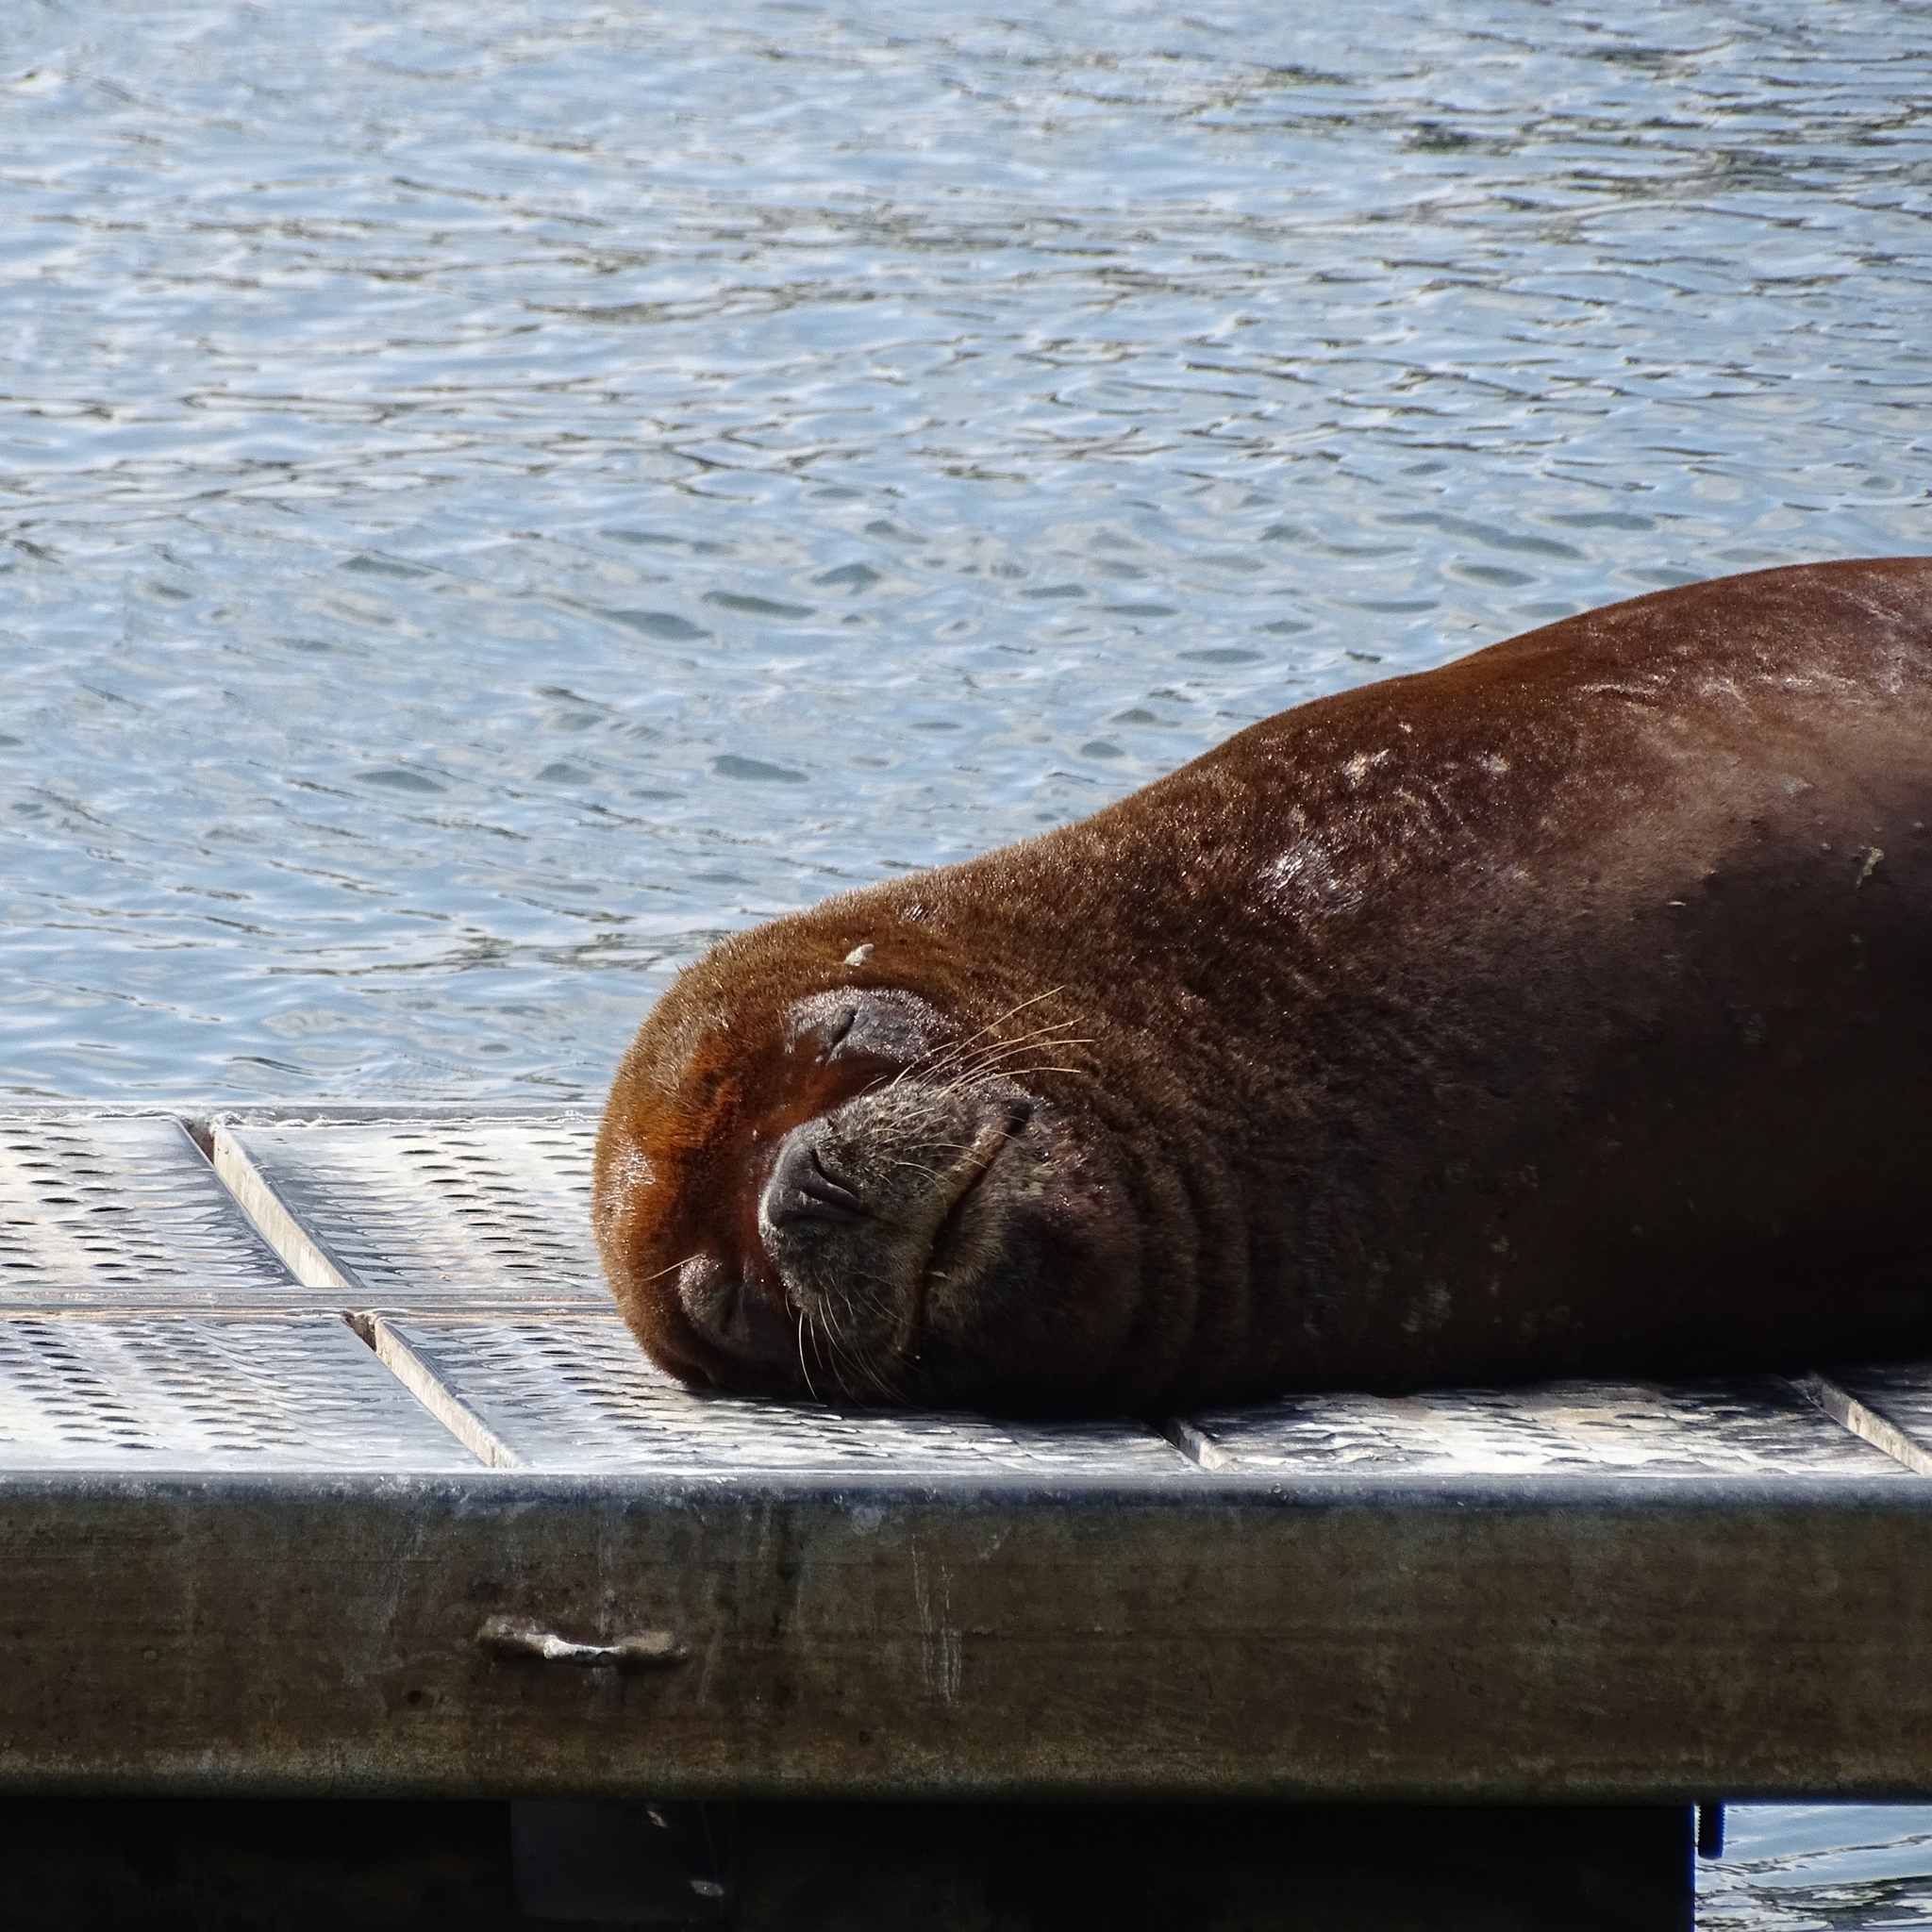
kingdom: Animalia
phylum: Chordata
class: Mammalia
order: Carnivora
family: Otariidae
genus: Otaria
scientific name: Otaria byronia
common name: South american sea lion
